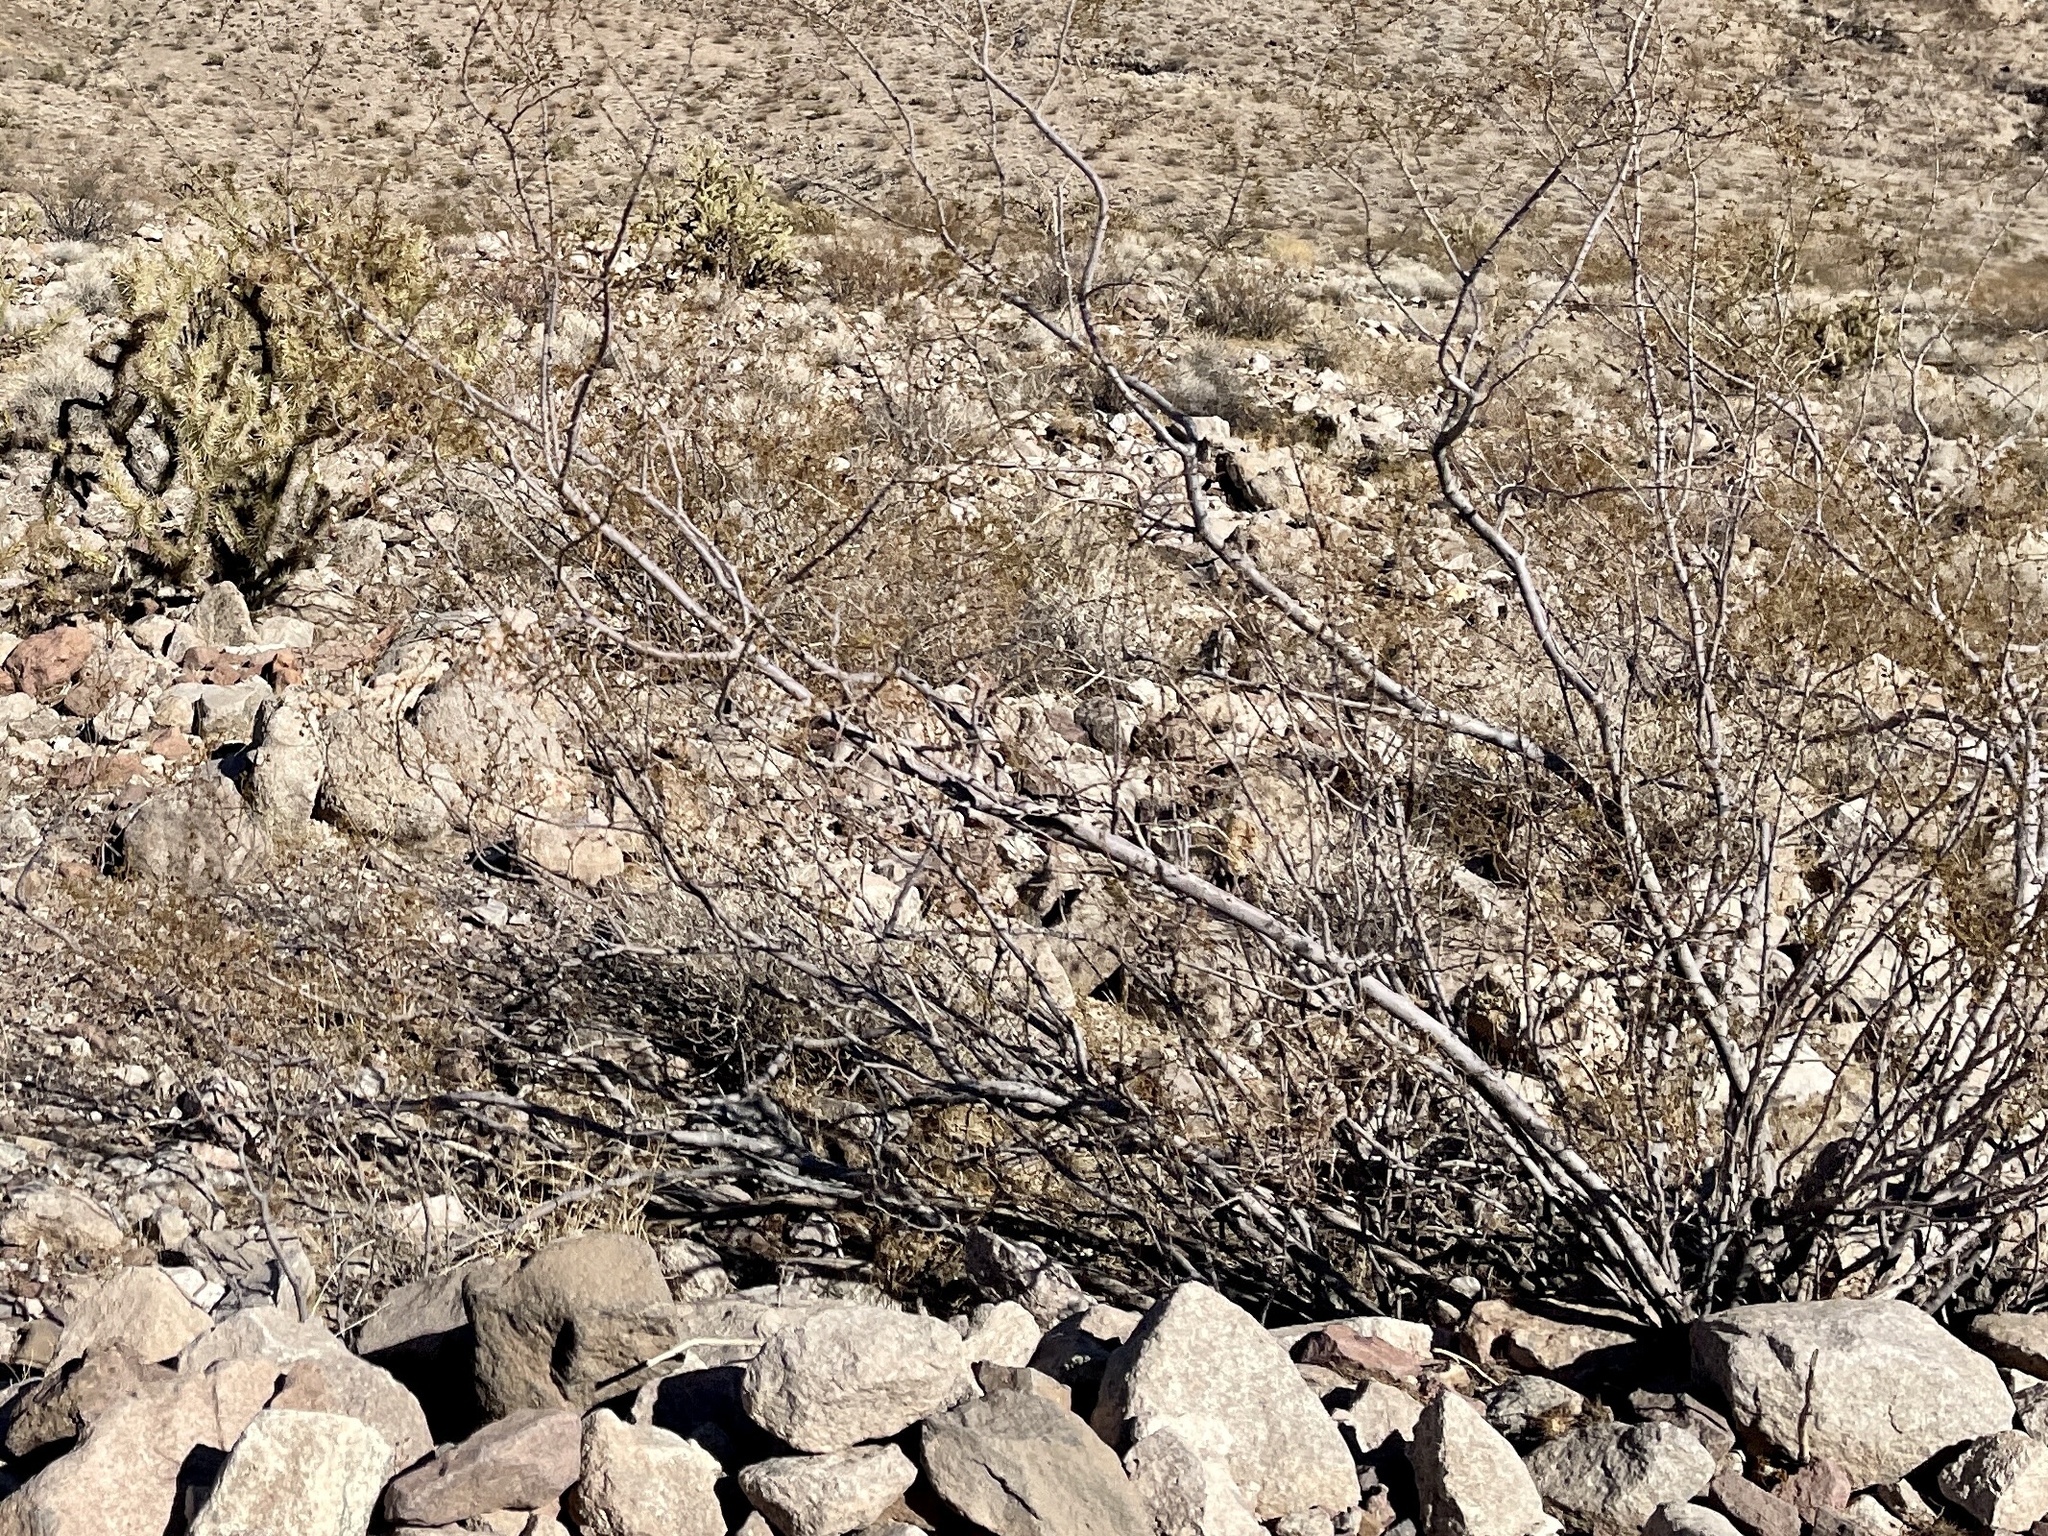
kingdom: Plantae
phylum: Tracheophyta
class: Magnoliopsida
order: Zygophyllales
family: Zygophyllaceae
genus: Larrea
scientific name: Larrea tridentata
